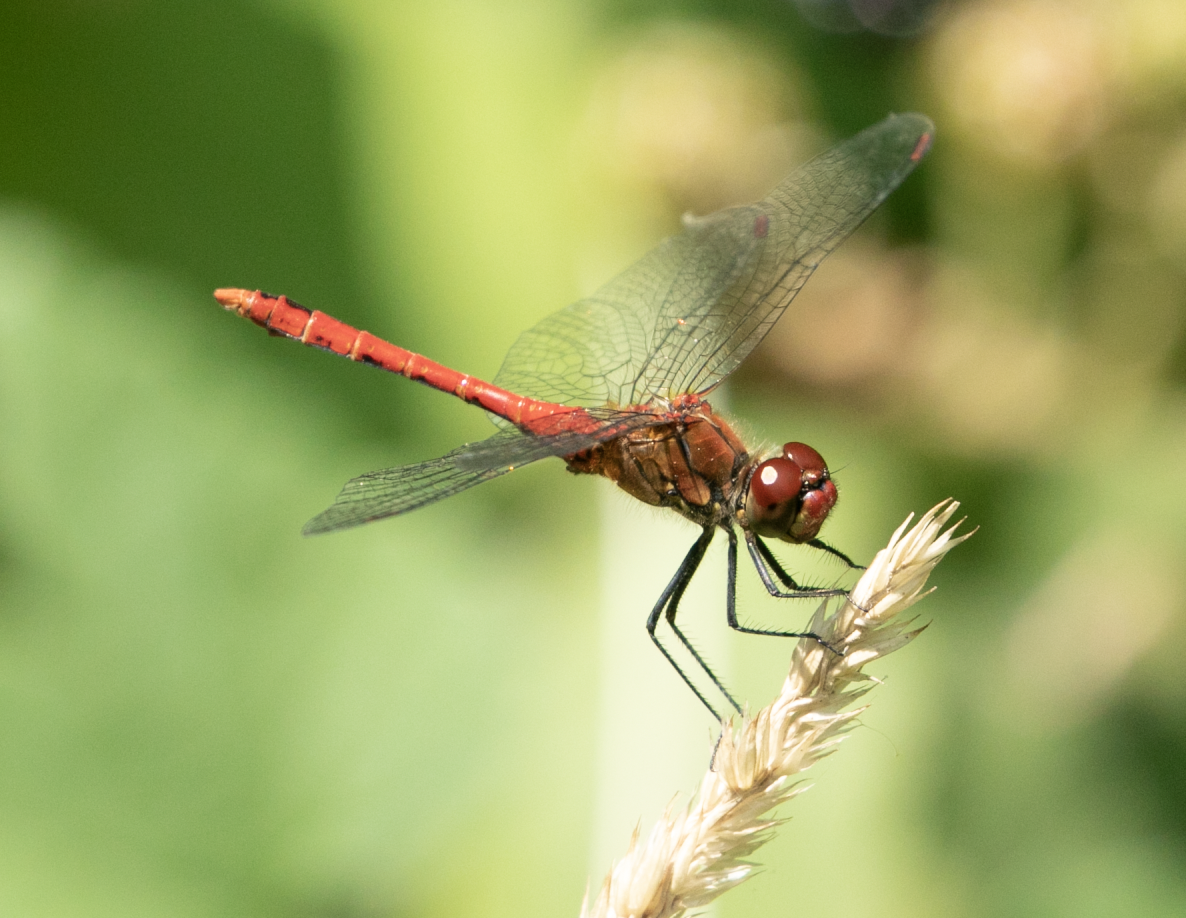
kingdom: Animalia
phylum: Arthropoda
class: Insecta
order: Odonata
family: Libellulidae
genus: Sympetrum
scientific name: Sympetrum sanguineum
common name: Ruddy darter
